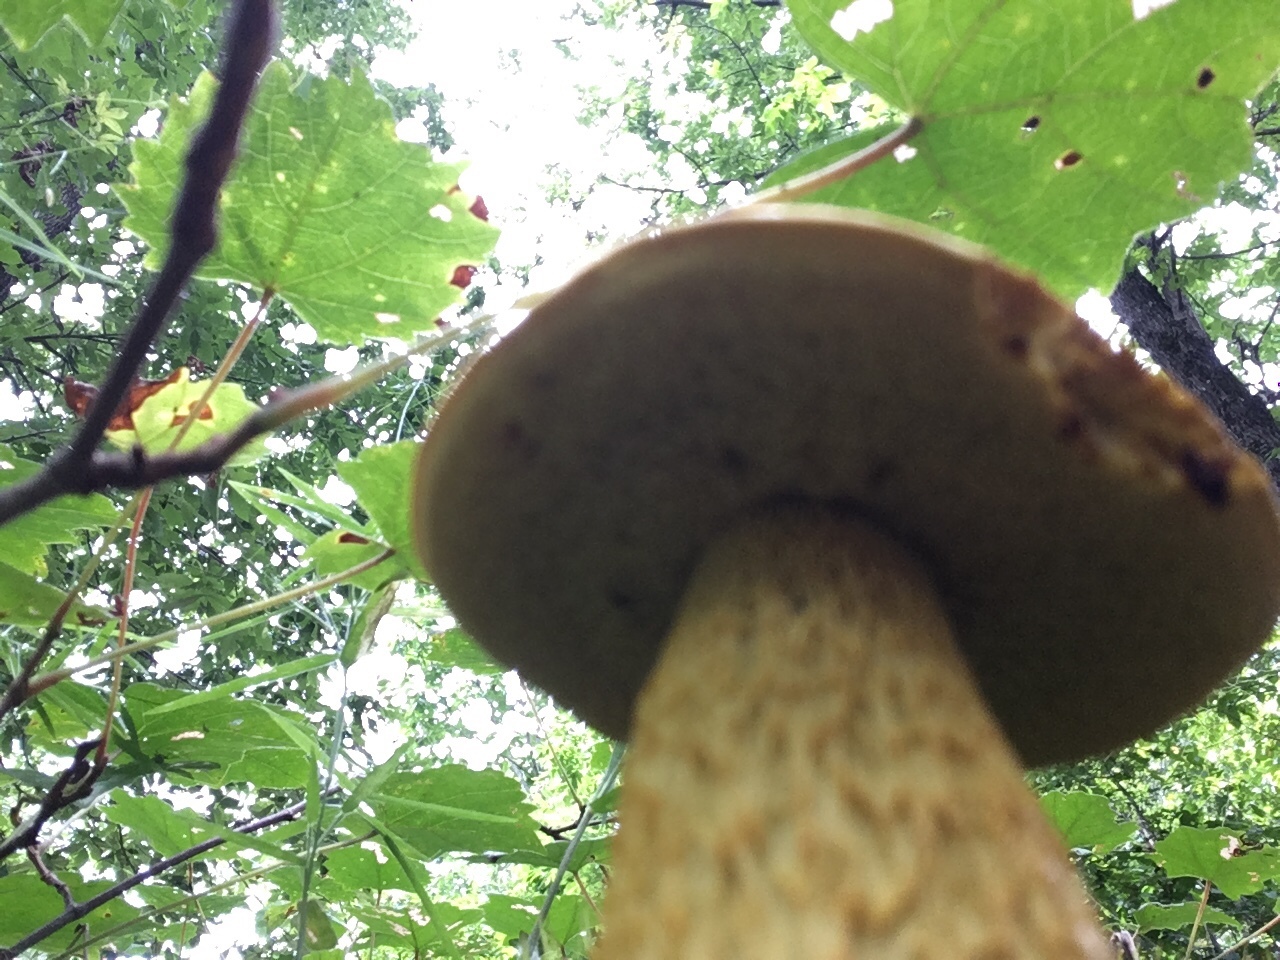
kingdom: Fungi
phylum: Basidiomycota
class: Agaricomycetes
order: Boletales
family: Boletaceae
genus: Retiboletus
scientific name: Retiboletus ornatipes
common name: Ornate-stalked bolete
